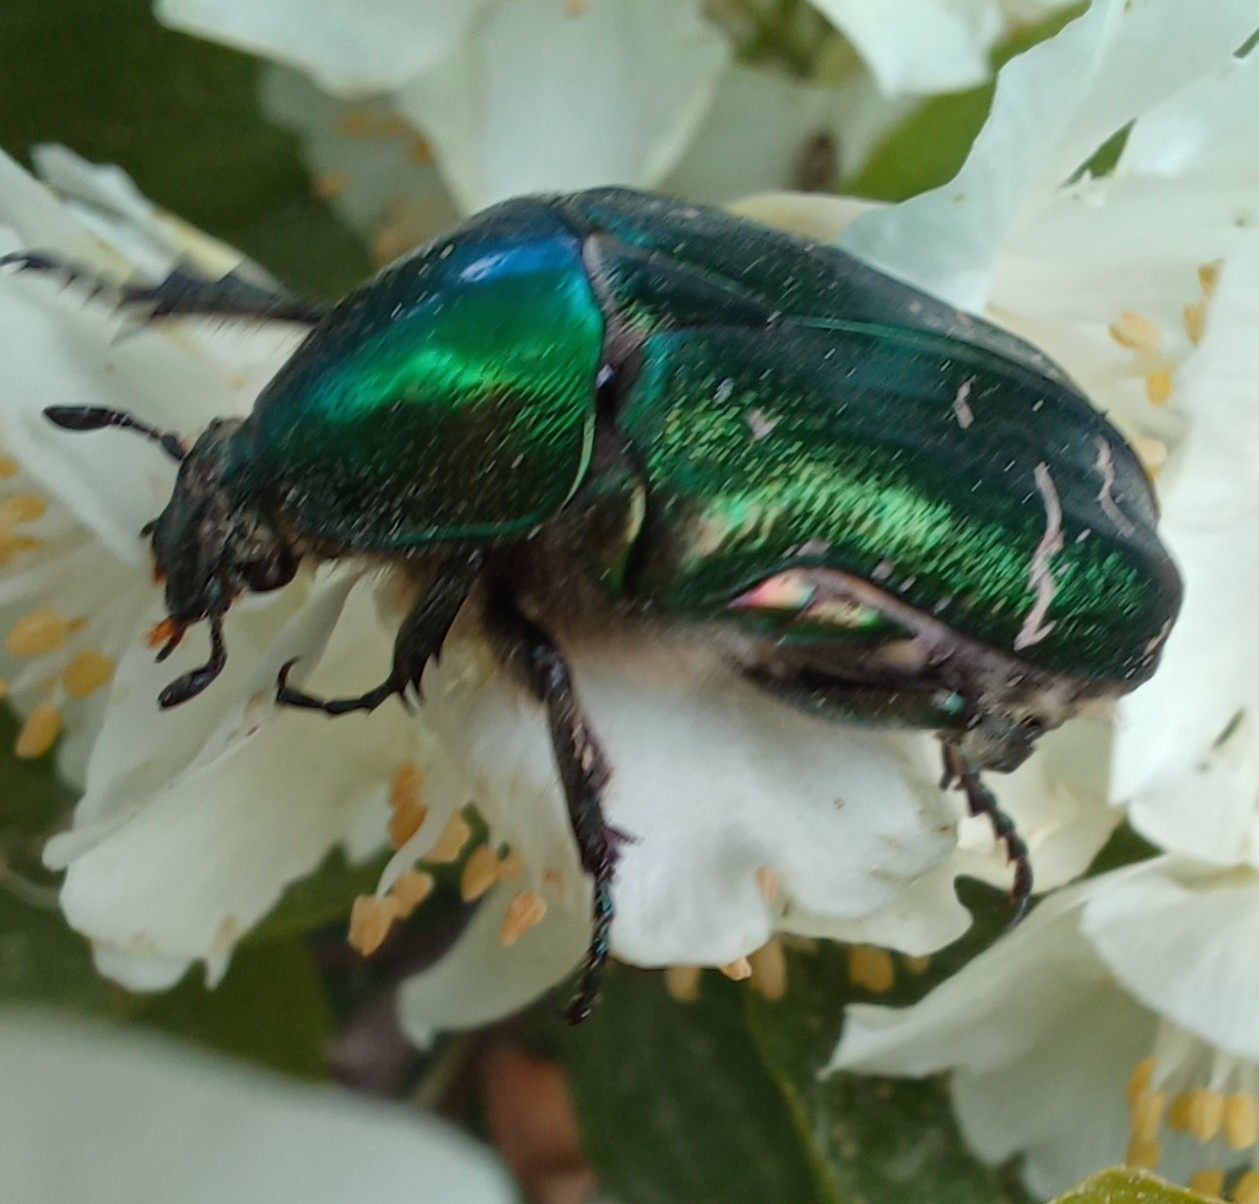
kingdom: Animalia
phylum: Arthropoda
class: Insecta
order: Coleoptera
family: Scarabaeidae
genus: Cetonia
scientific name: Cetonia aurata
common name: Rose chafer
